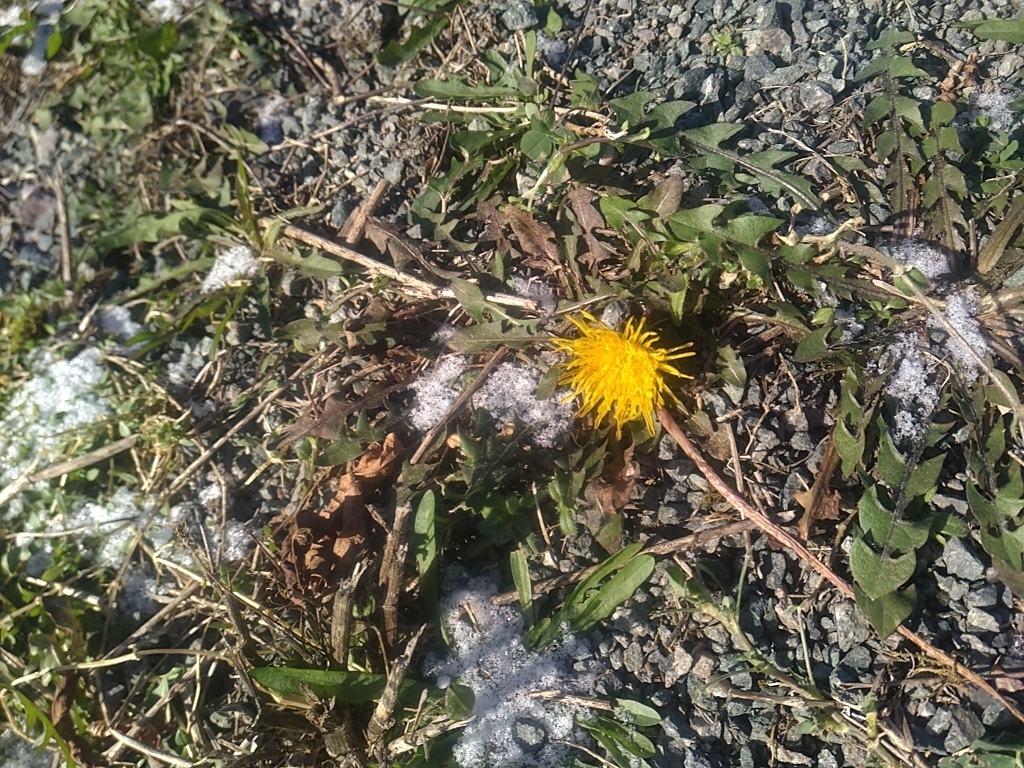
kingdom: Plantae
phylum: Tracheophyta
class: Magnoliopsida
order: Asterales
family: Asteraceae
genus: Taraxacum
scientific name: Taraxacum officinale
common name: Common dandelion
